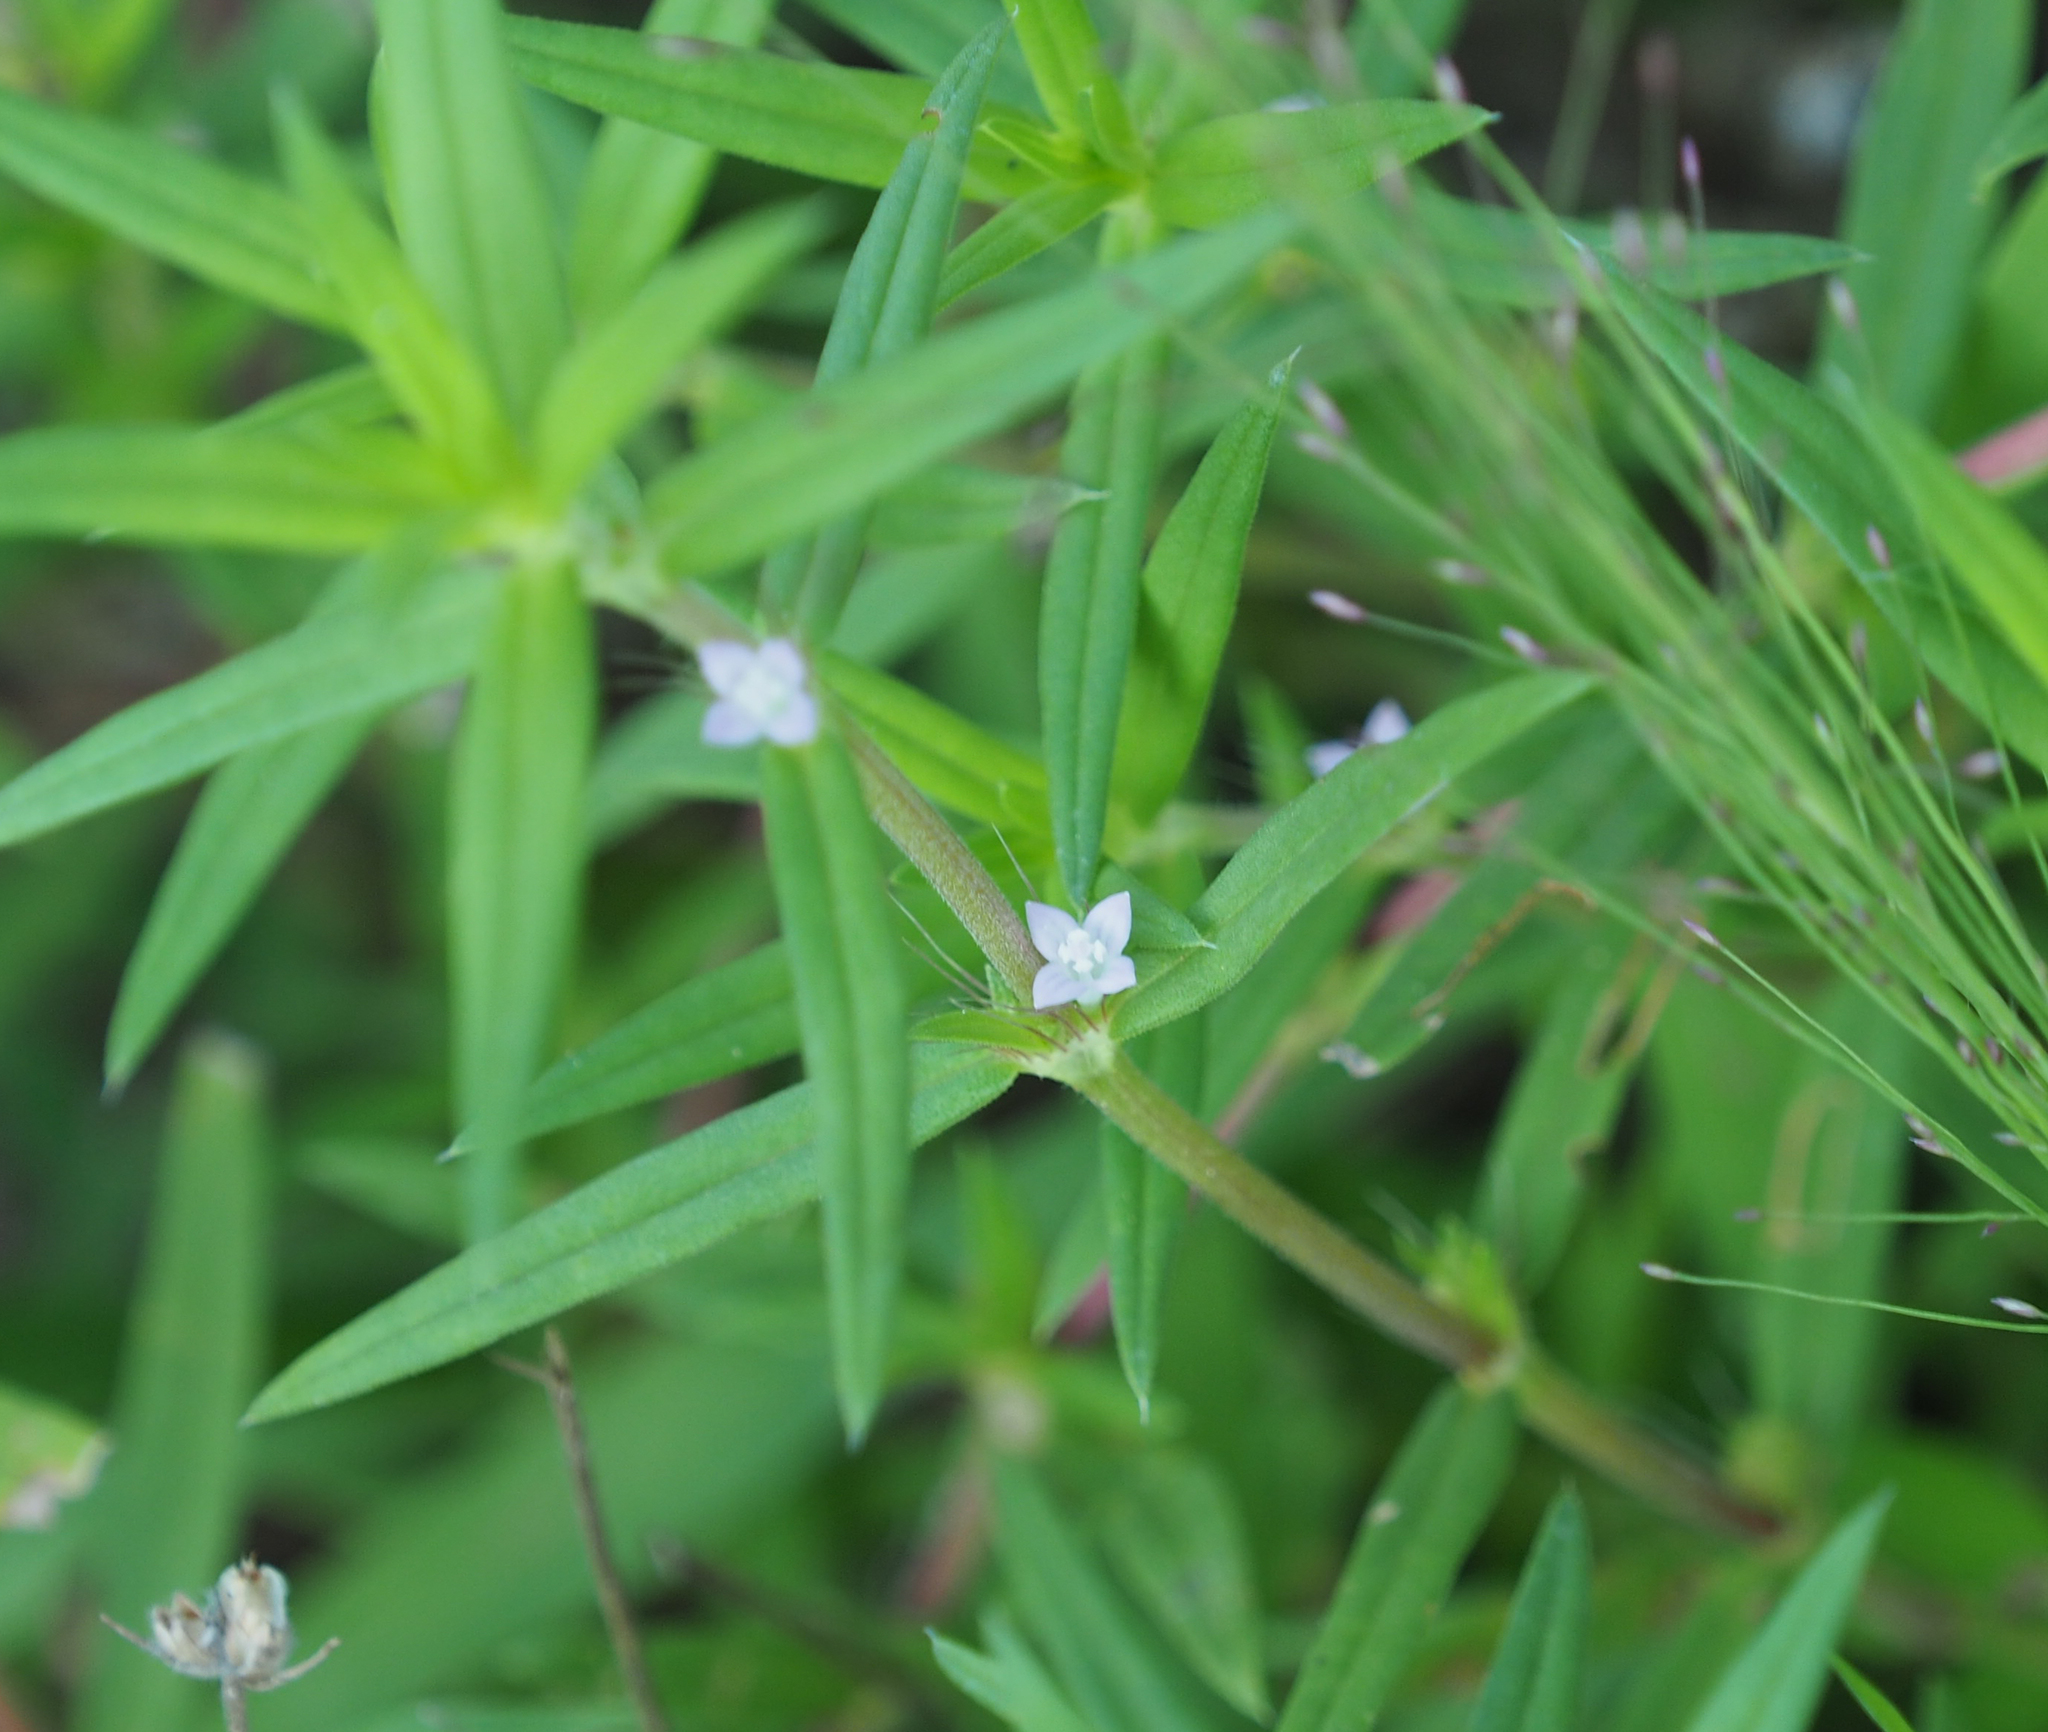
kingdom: Plantae
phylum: Tracheophyta
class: Magnoliopsida
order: Gentianales
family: Rubiaceae
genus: Diodia
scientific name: Diodia virginiana
